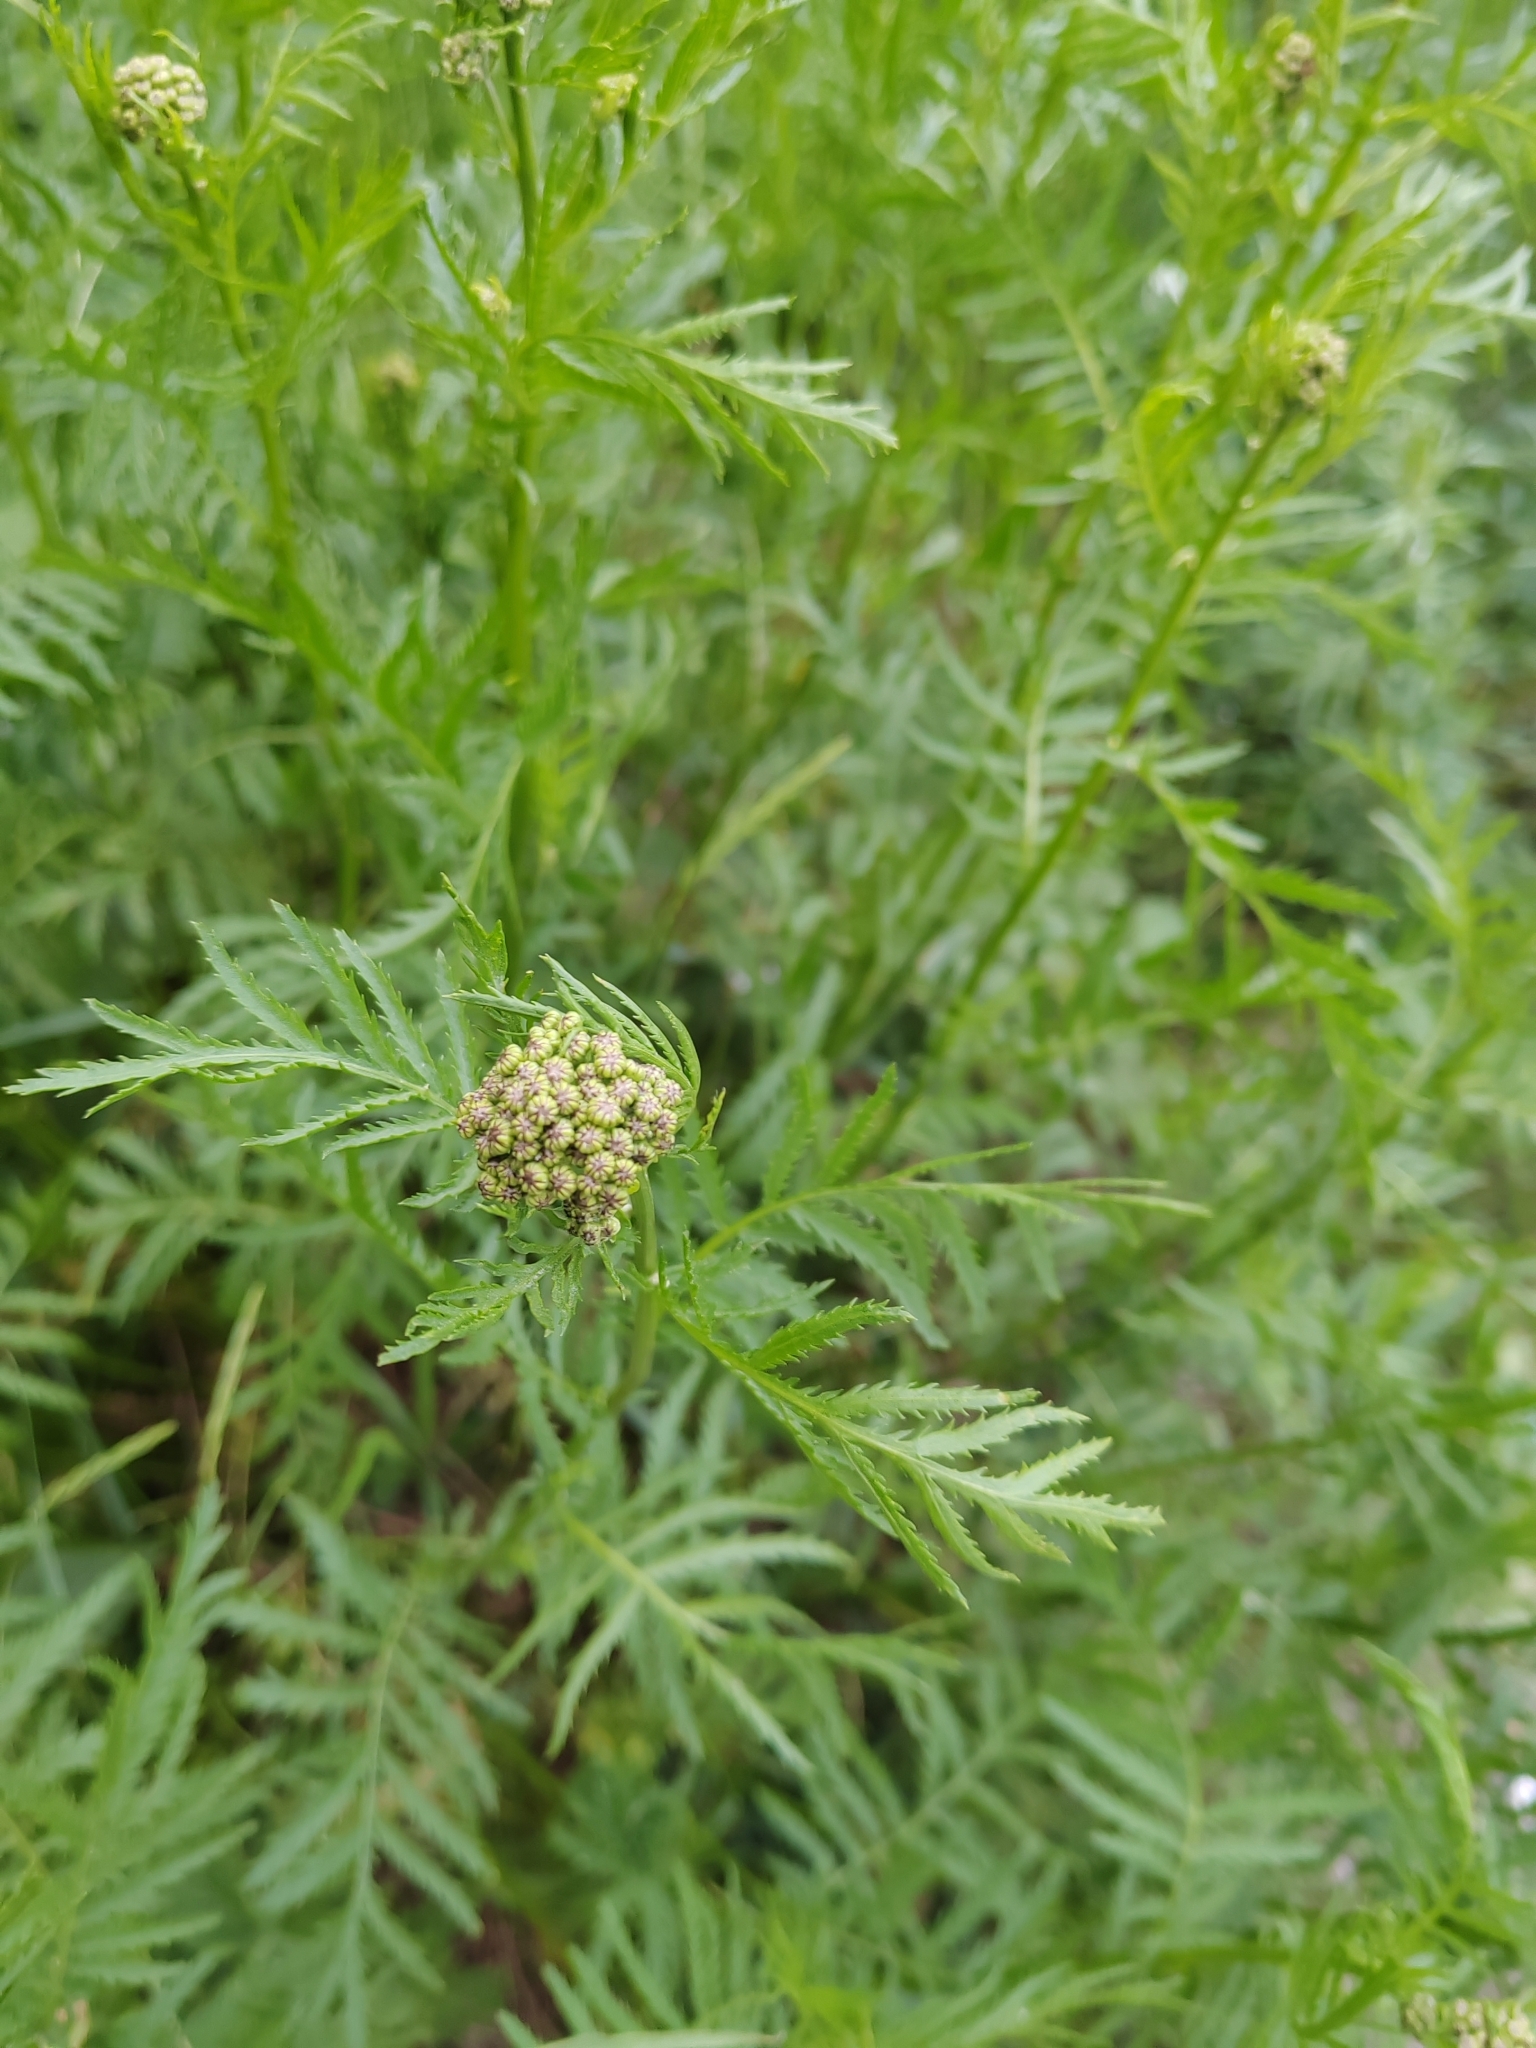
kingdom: Plantae
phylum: Tracheophyta
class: Magnoliopsida
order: Asterales
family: Asteraceae
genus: Tanacetum
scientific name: Tanacetum vulgare
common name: Common tansy
